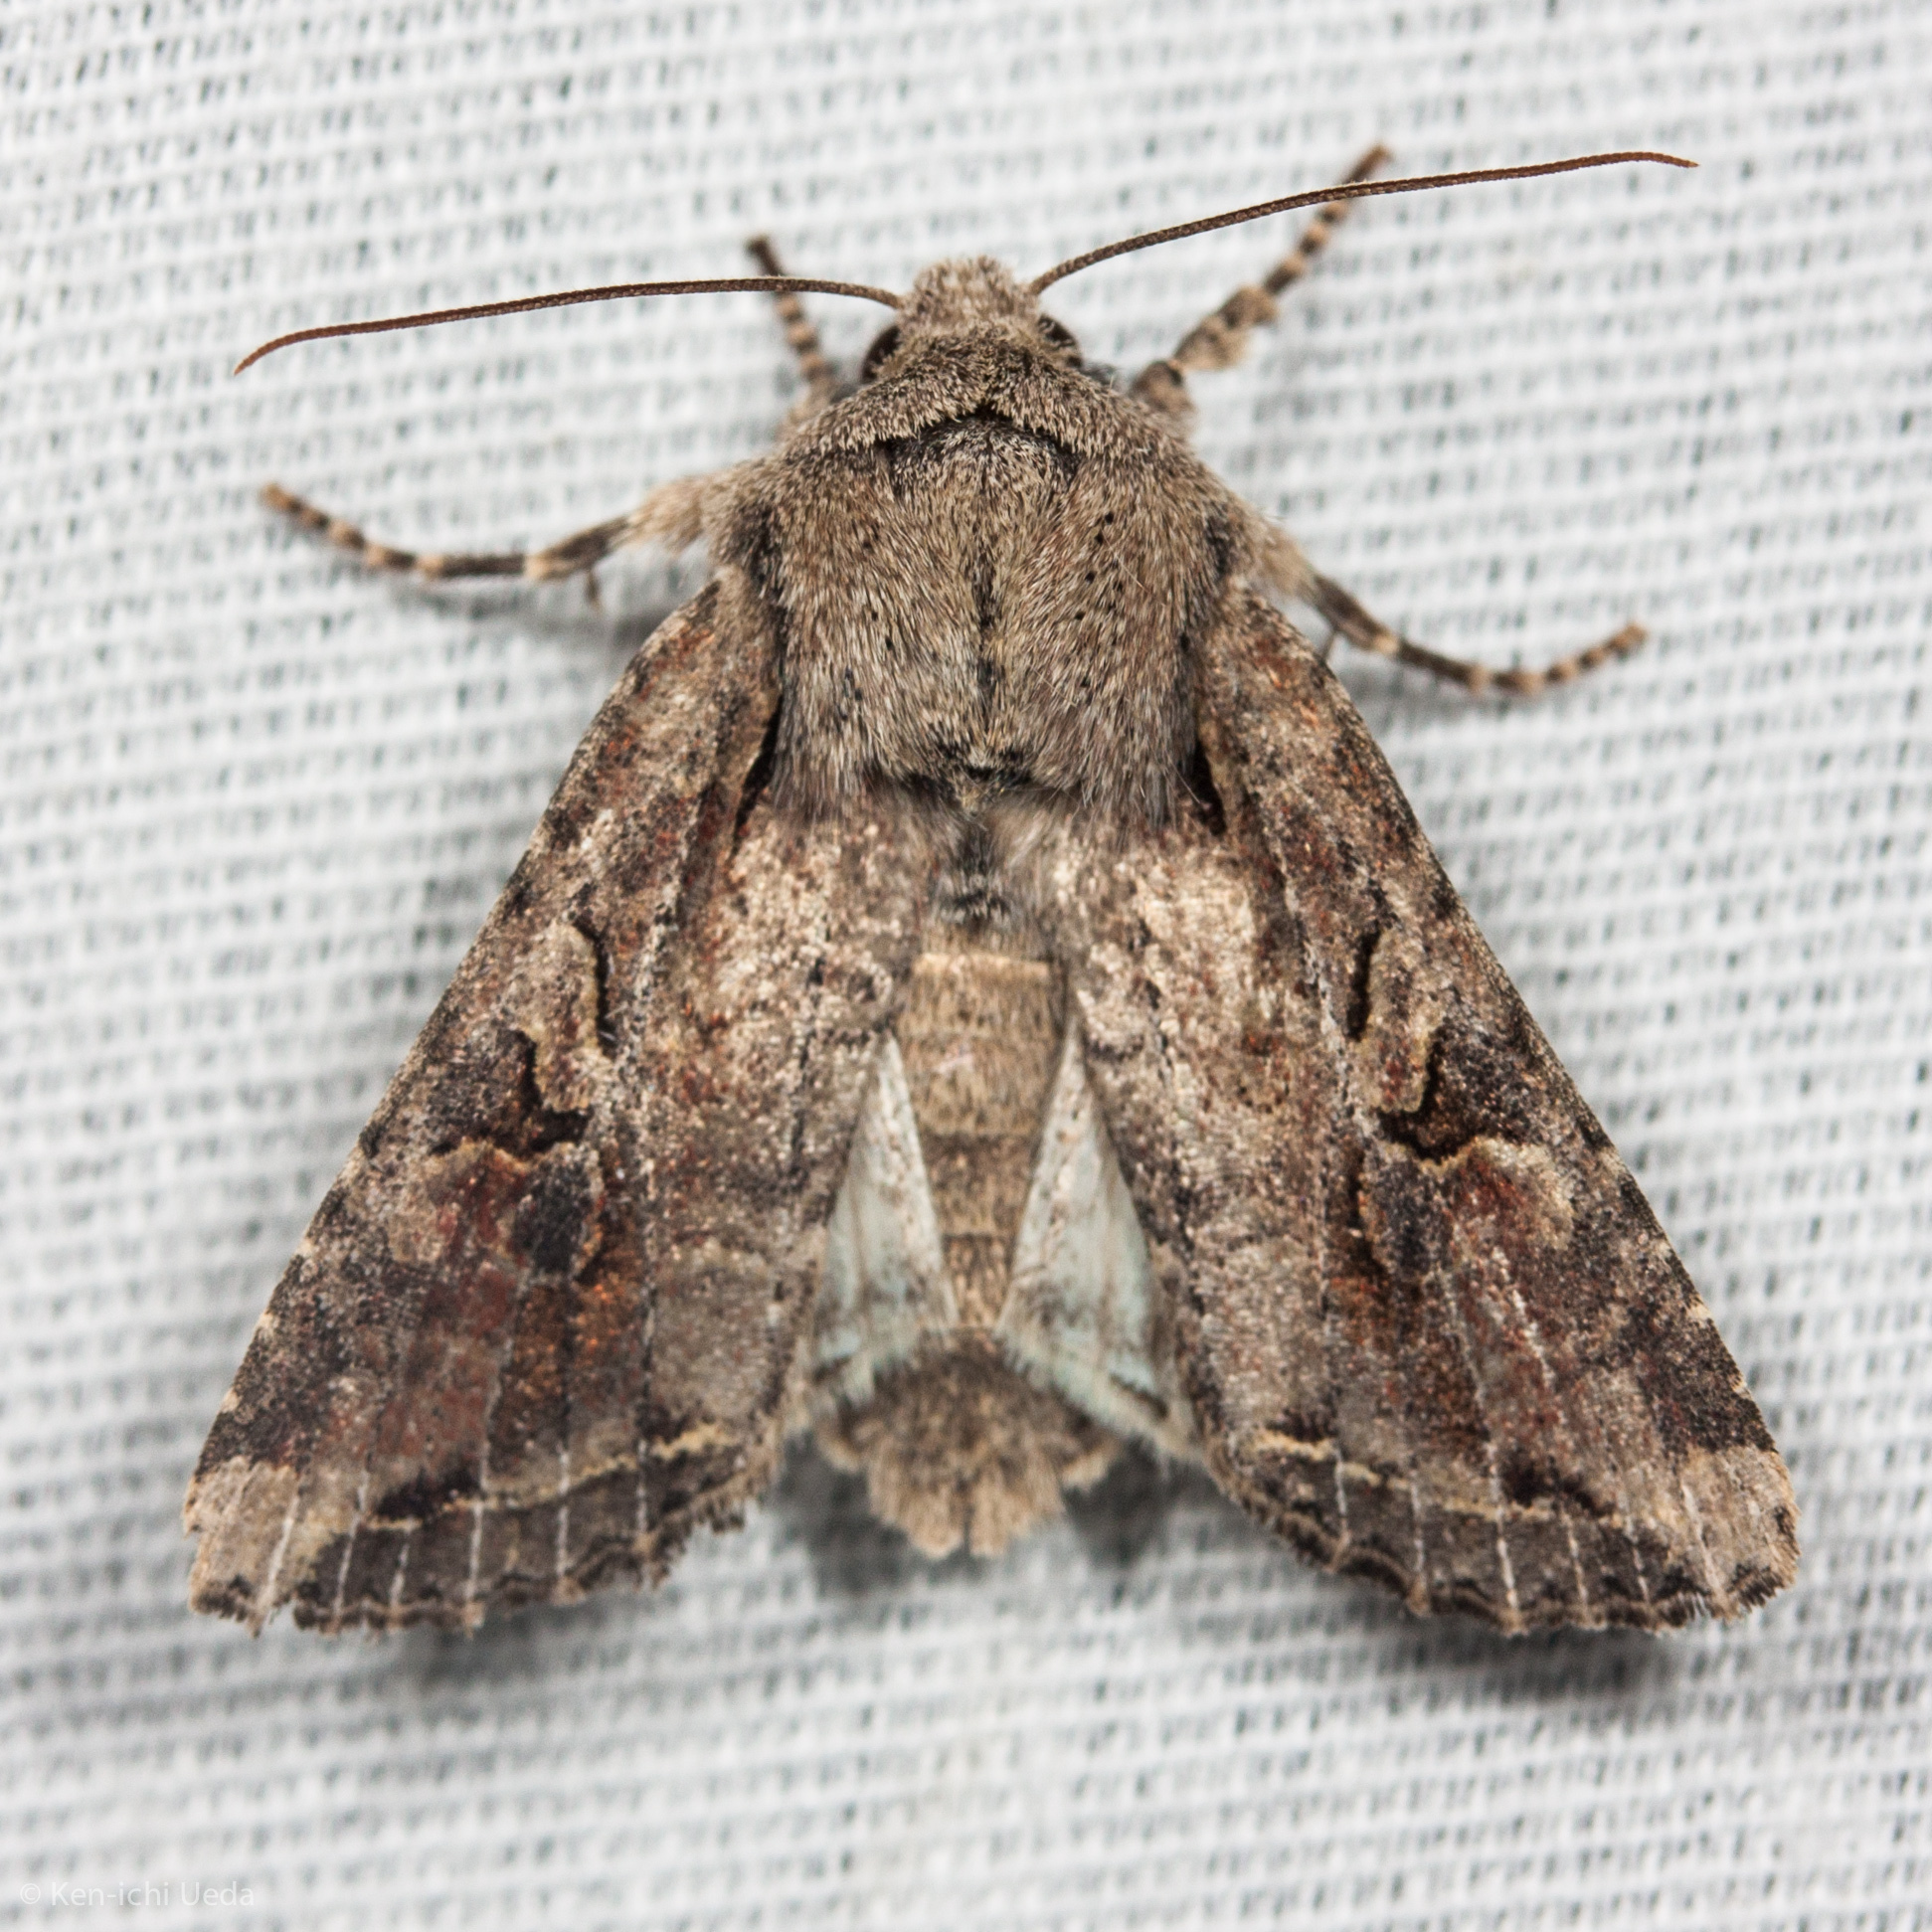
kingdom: Animalia
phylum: Arthropoda
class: Insecta
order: Lepidoptera
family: Noctuidae
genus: Egira
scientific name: Egira rubrica
